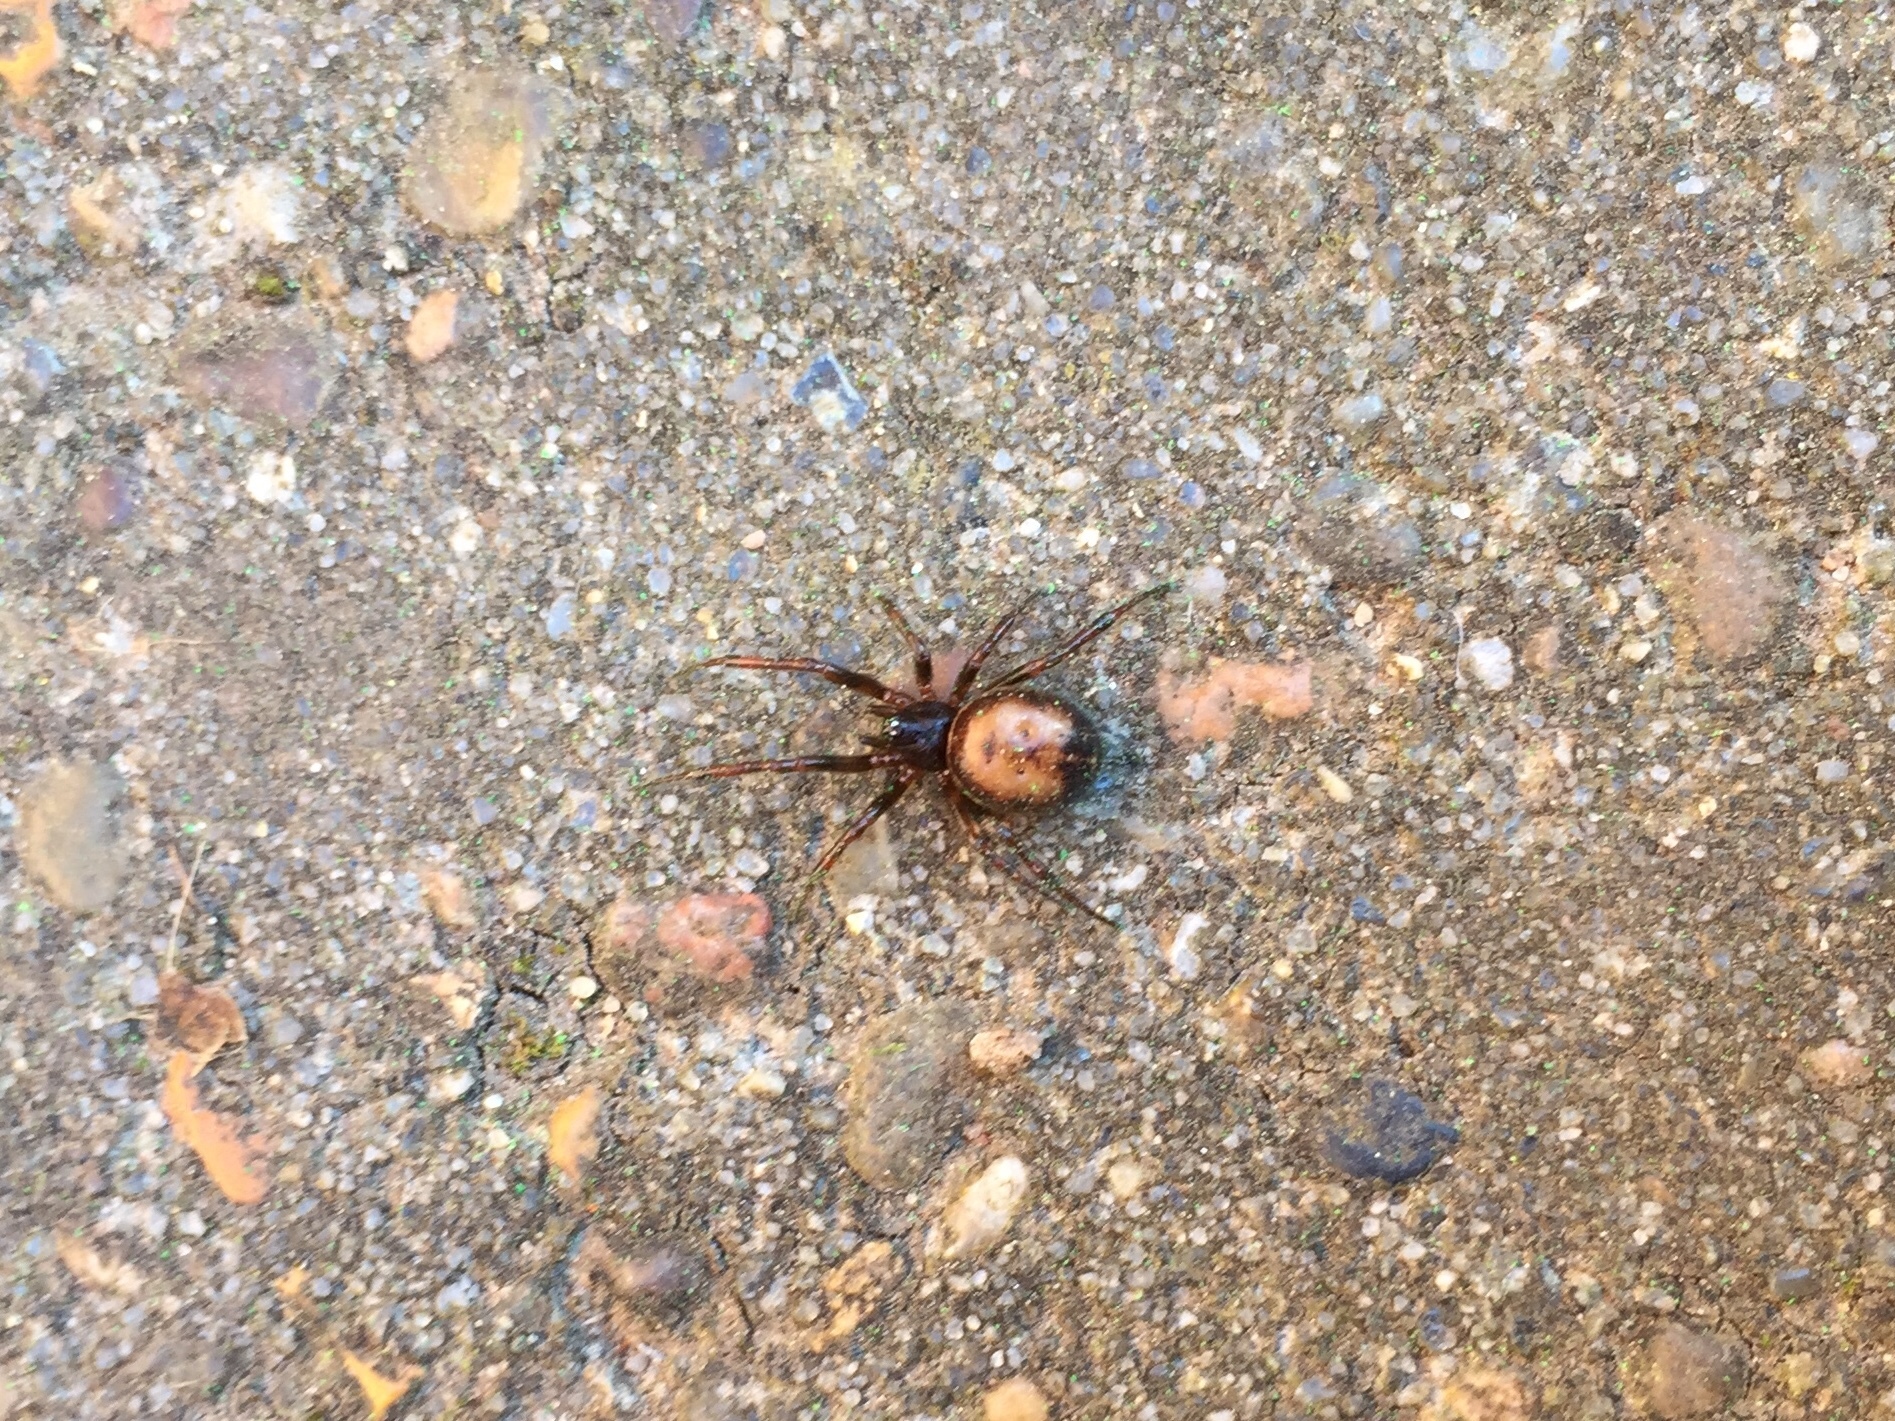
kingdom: Animalia
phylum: Arthropoda
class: Arachnida
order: Araneae
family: Theridiidae
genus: Steatoda
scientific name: Steatoda bipunctata
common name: False widow
